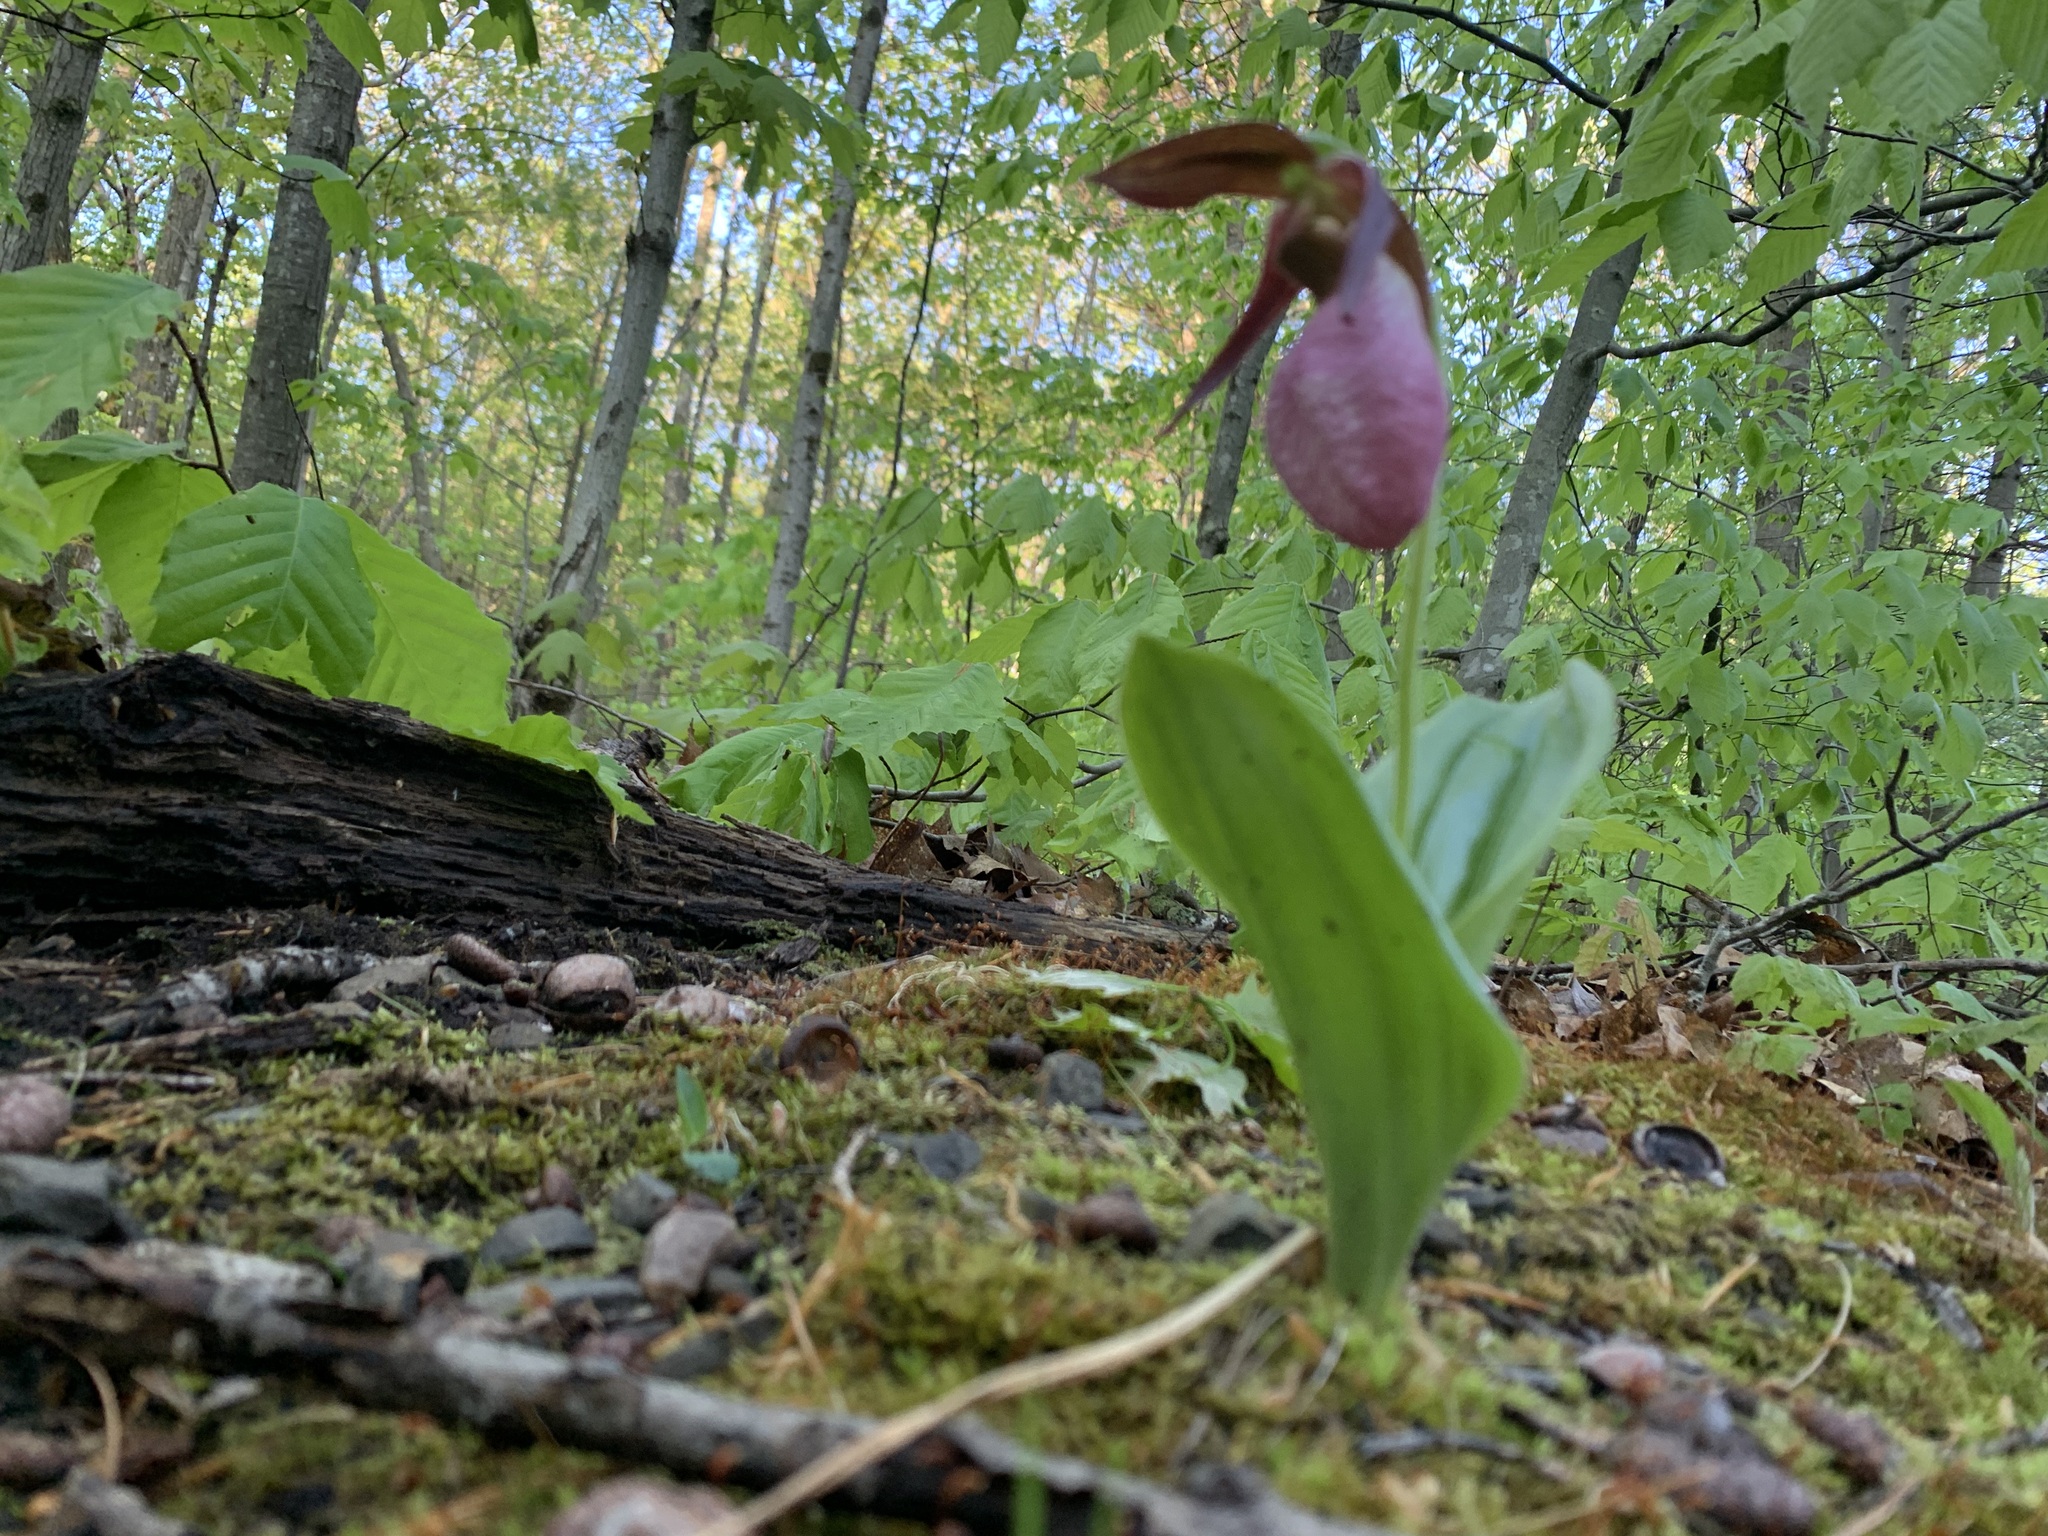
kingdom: Plantae
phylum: Tracheophyta
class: Liliopsida
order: Asparagales
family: Orchidaceae
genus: Cypripedium
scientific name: Cypripedium acaule
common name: Pink lady's-slipper
